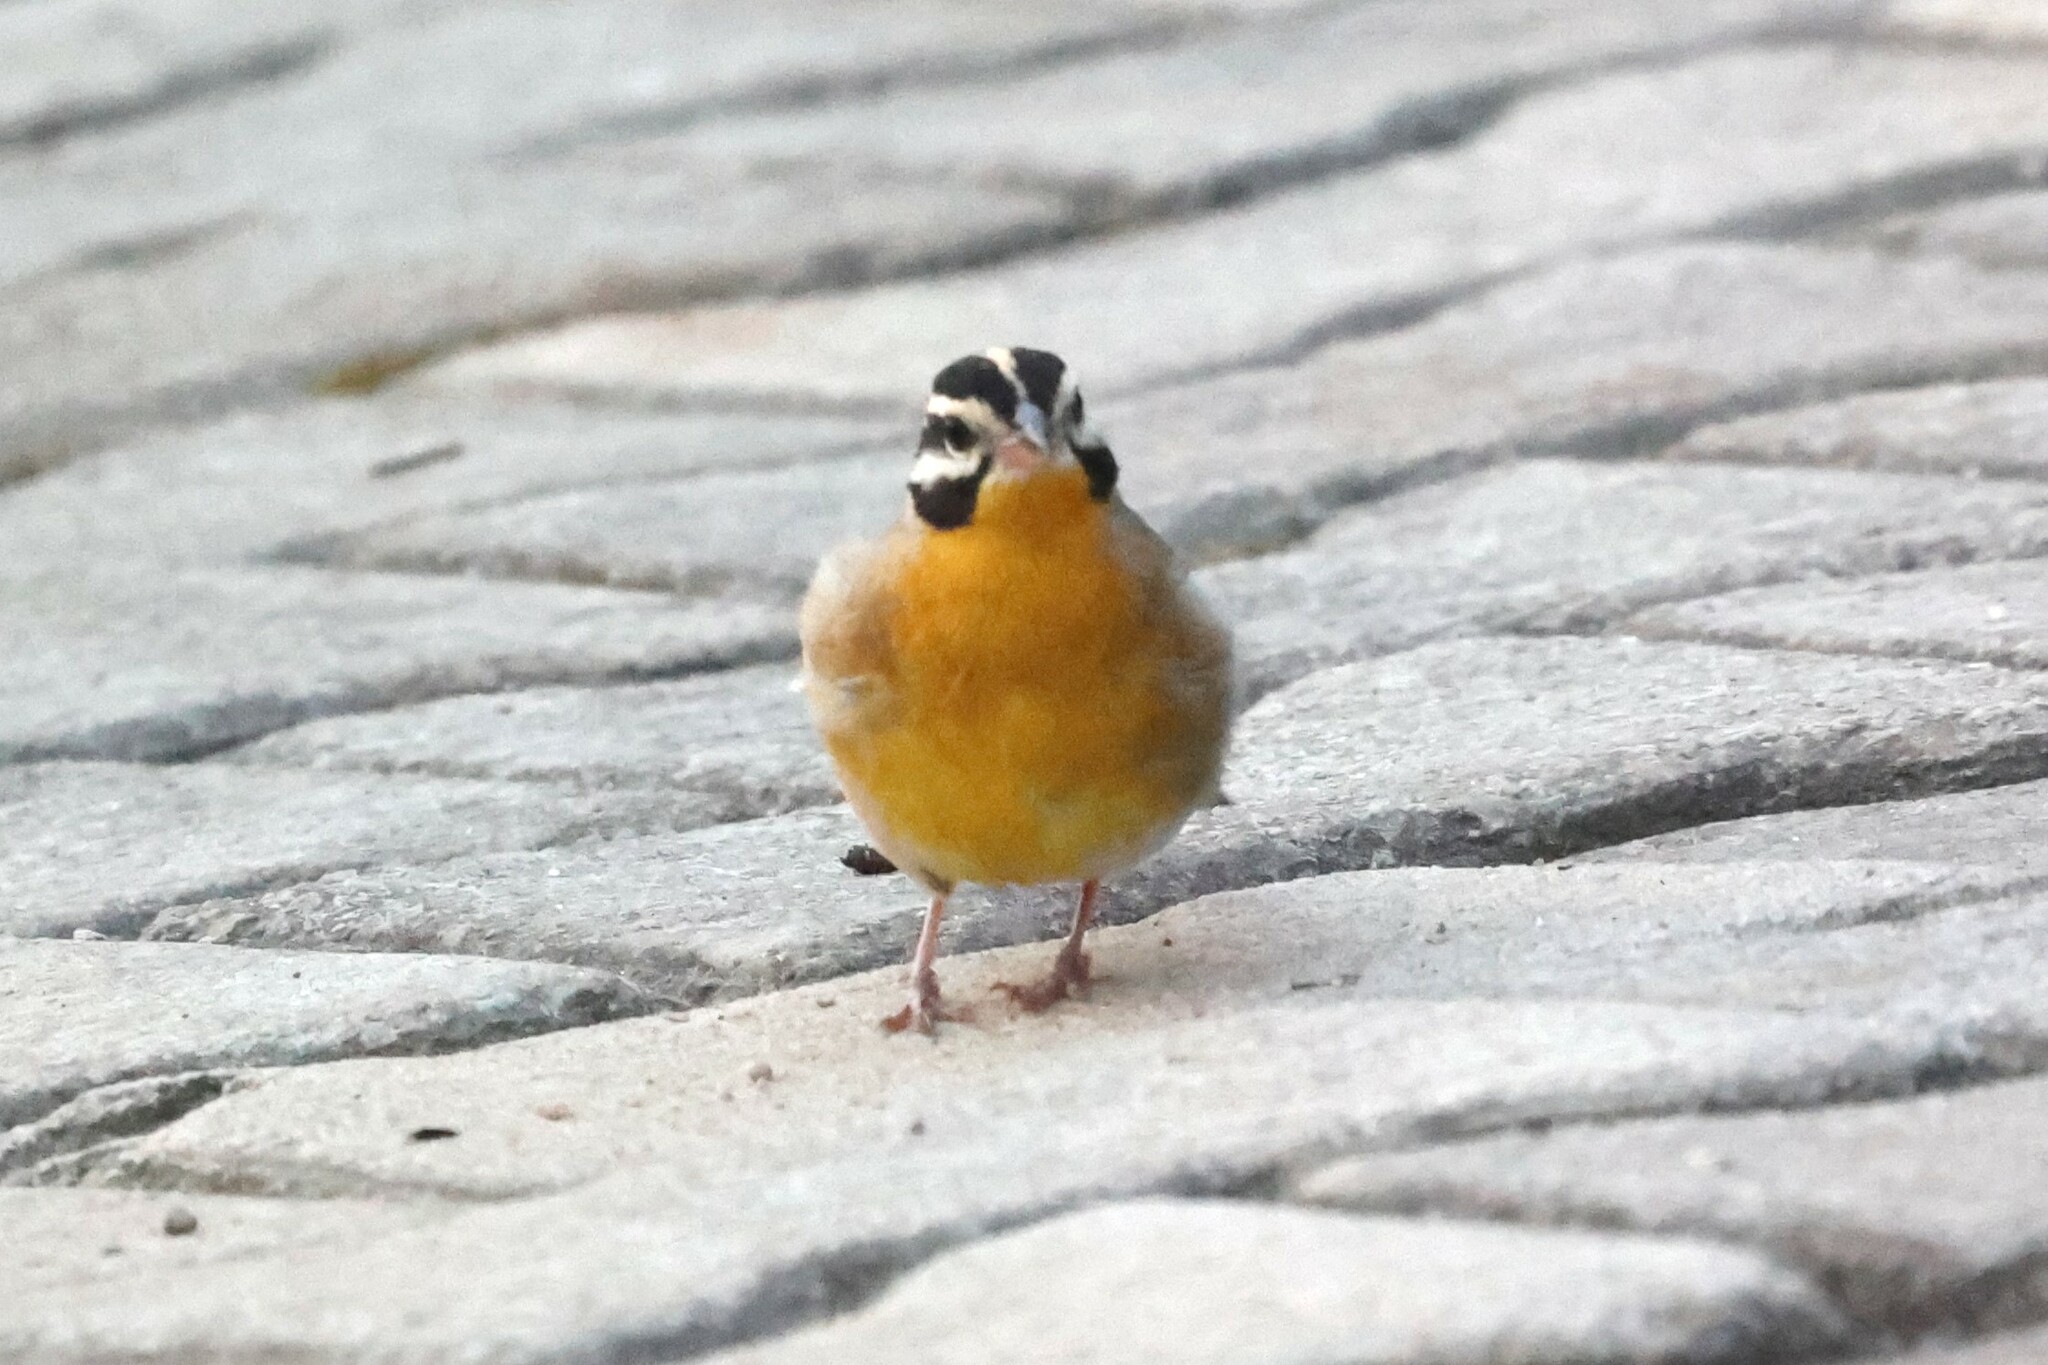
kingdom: Animalia
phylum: Chordata
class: Aves
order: Passeriformes
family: Emberizidae
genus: Emberiza
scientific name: Emberiza flaviventris
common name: Golden-breasted bunting
